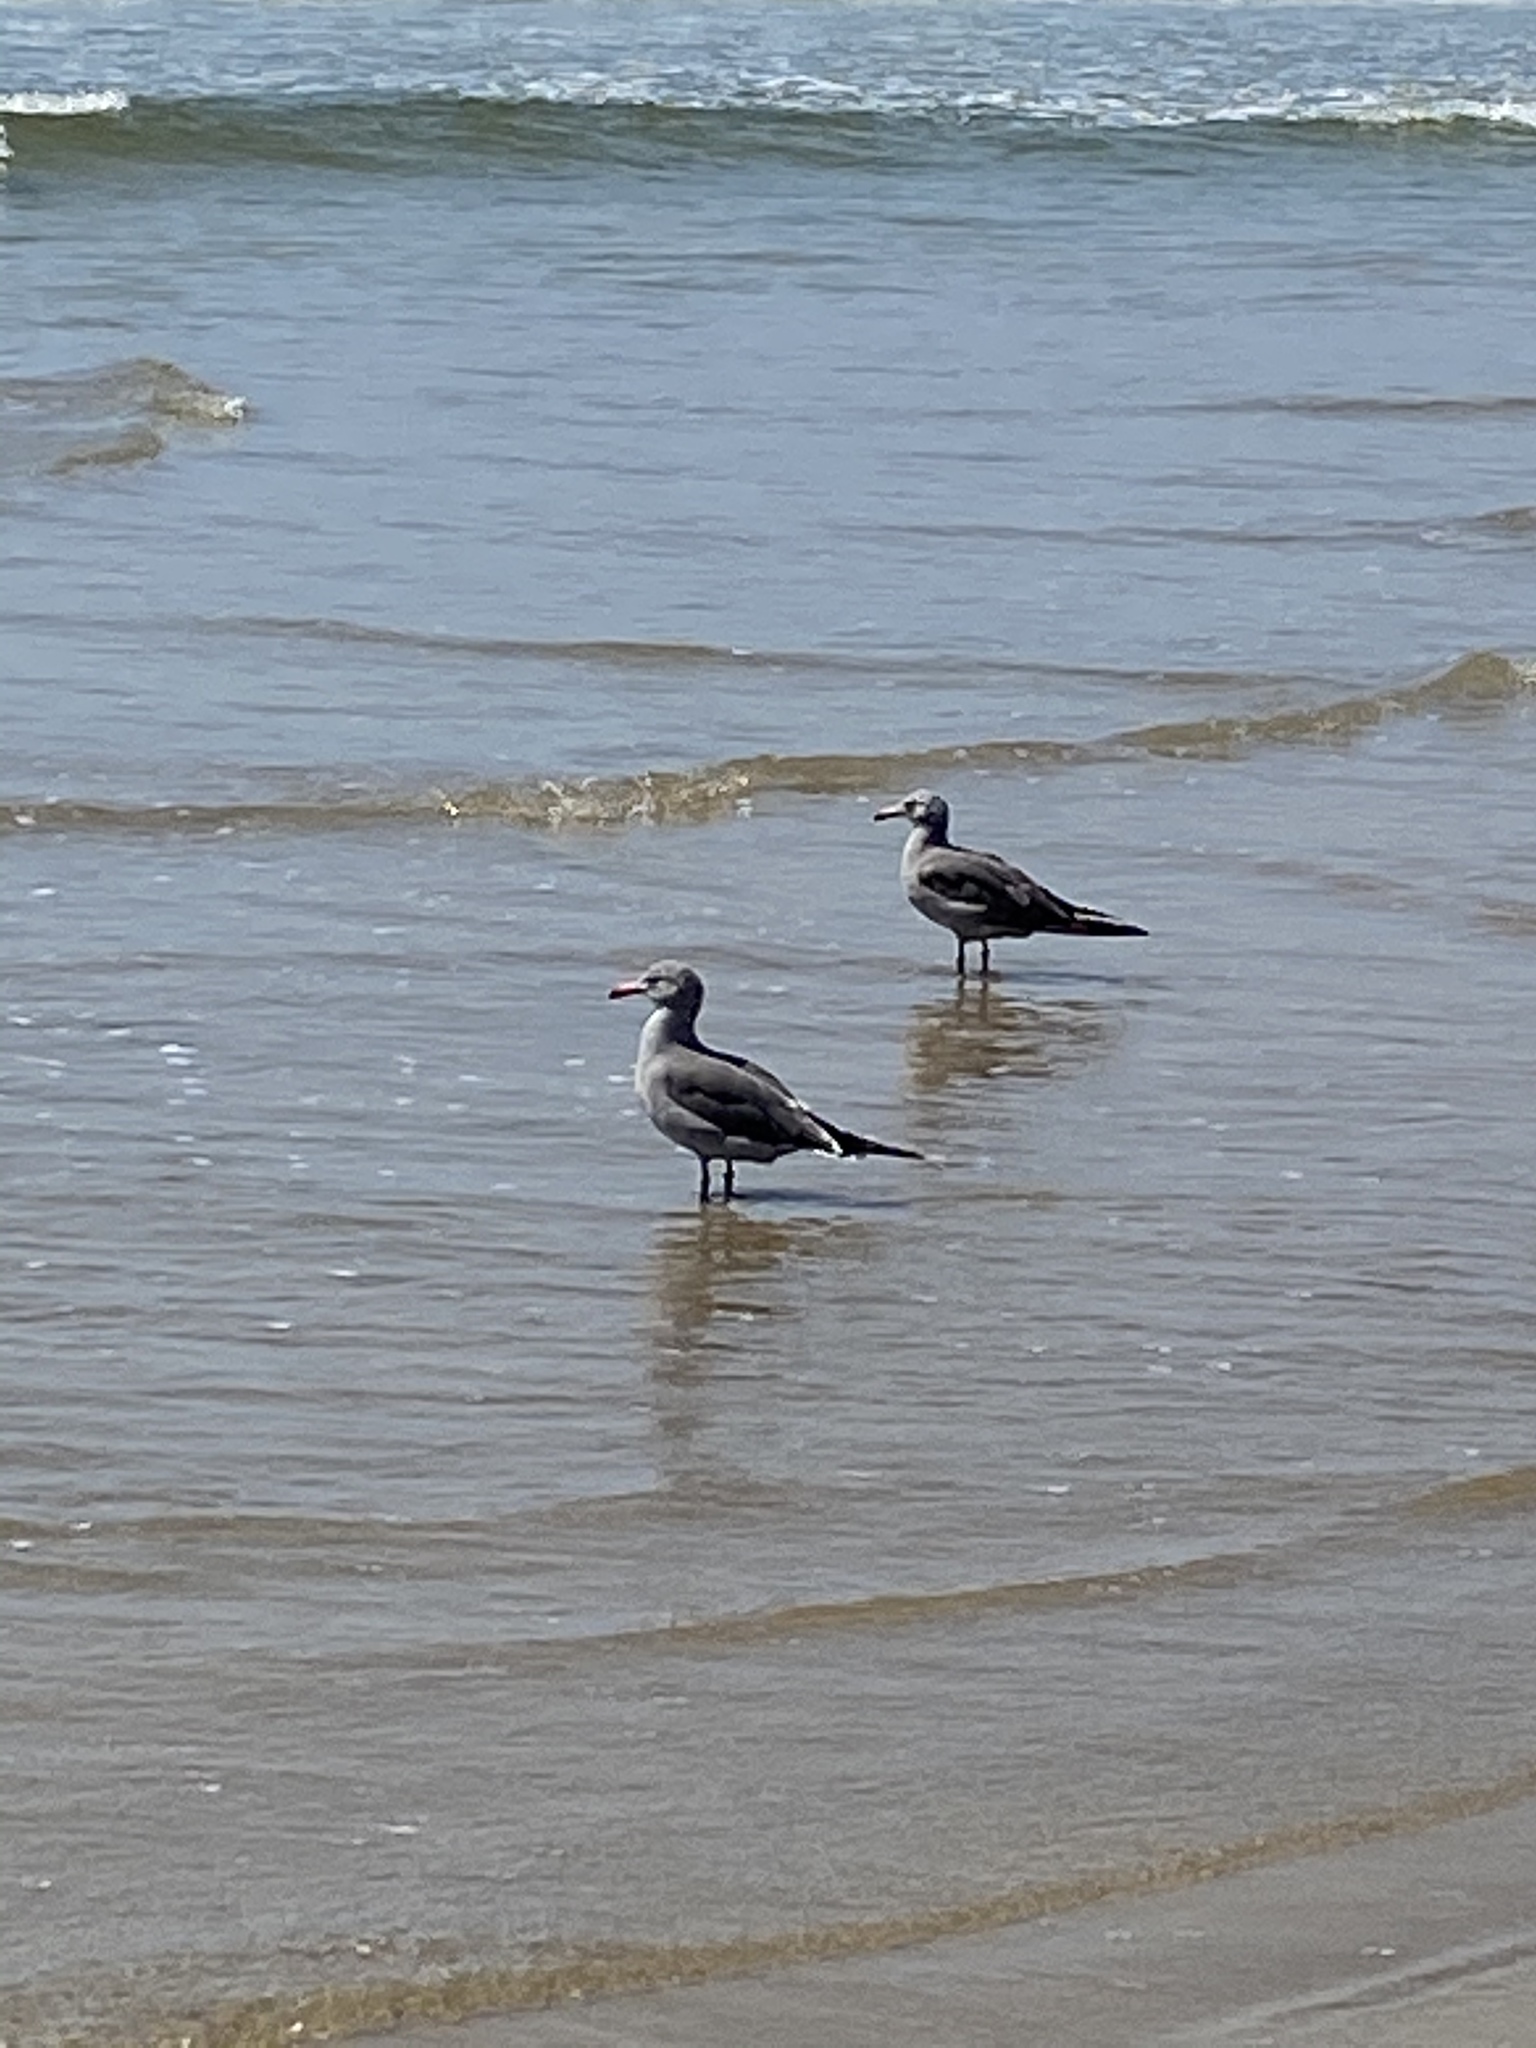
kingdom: Animalia
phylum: Chordata
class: Aves
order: Charadriiformes
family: Laridae
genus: Larus
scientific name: Larus heermanni
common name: Heermann's gull
